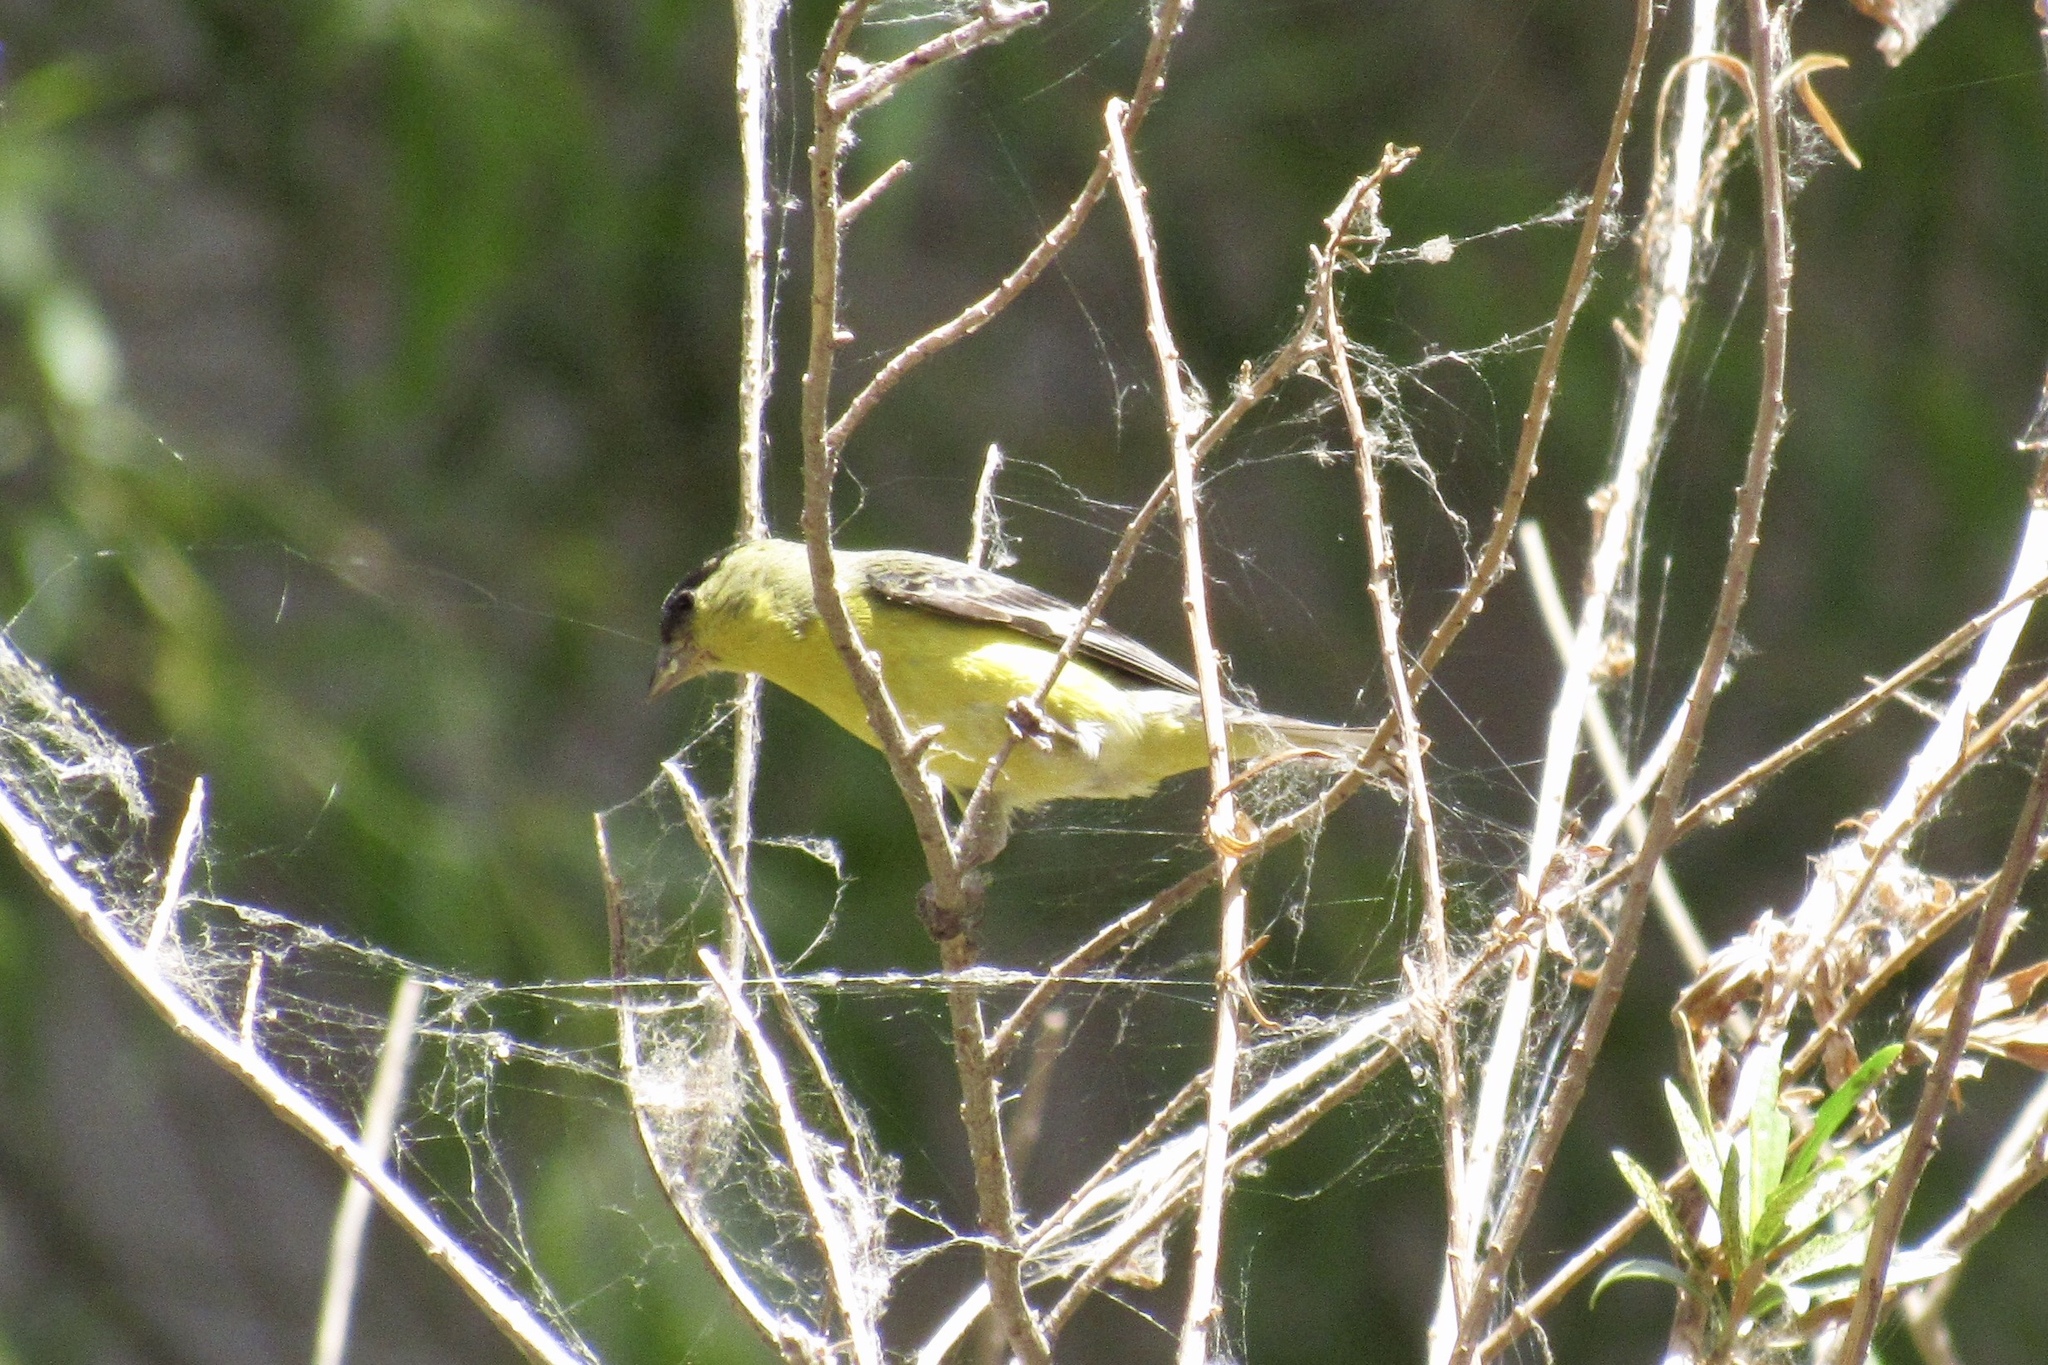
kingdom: Animalia
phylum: Chordata
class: Aves
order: Passeriformes
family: Fringillidae
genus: Spinus
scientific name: Spinus psaltria
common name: Lesser goldfinch
